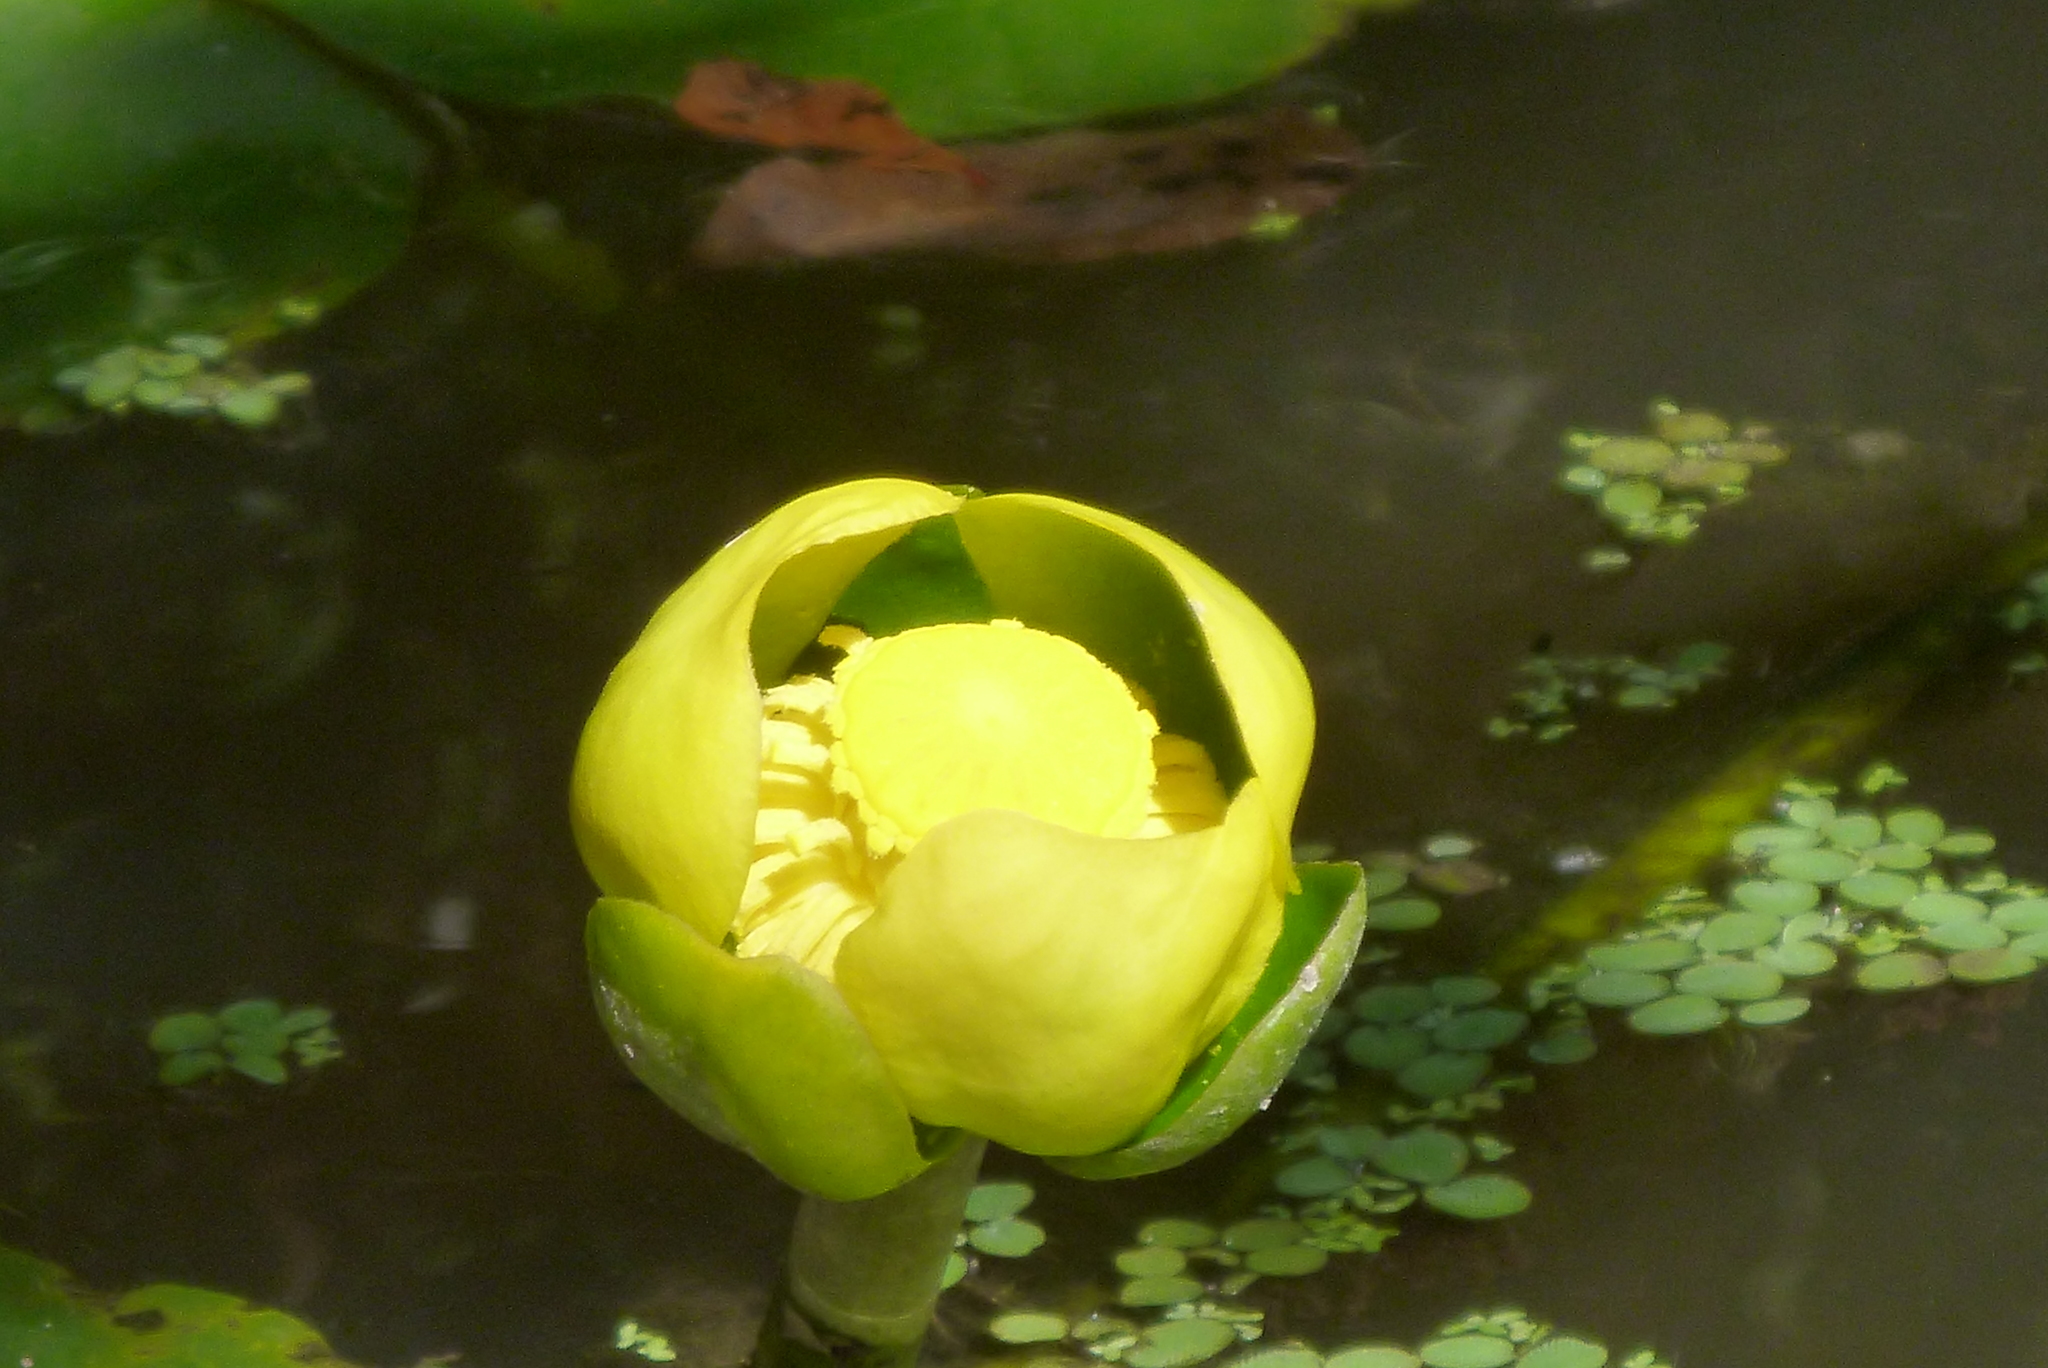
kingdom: Plantae
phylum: Tracheophyta
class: Magnoliopsida
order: Nymphaeales
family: Nymphaeaceae
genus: Nuphar
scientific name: Nuphar advena
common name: Spatter-dock
